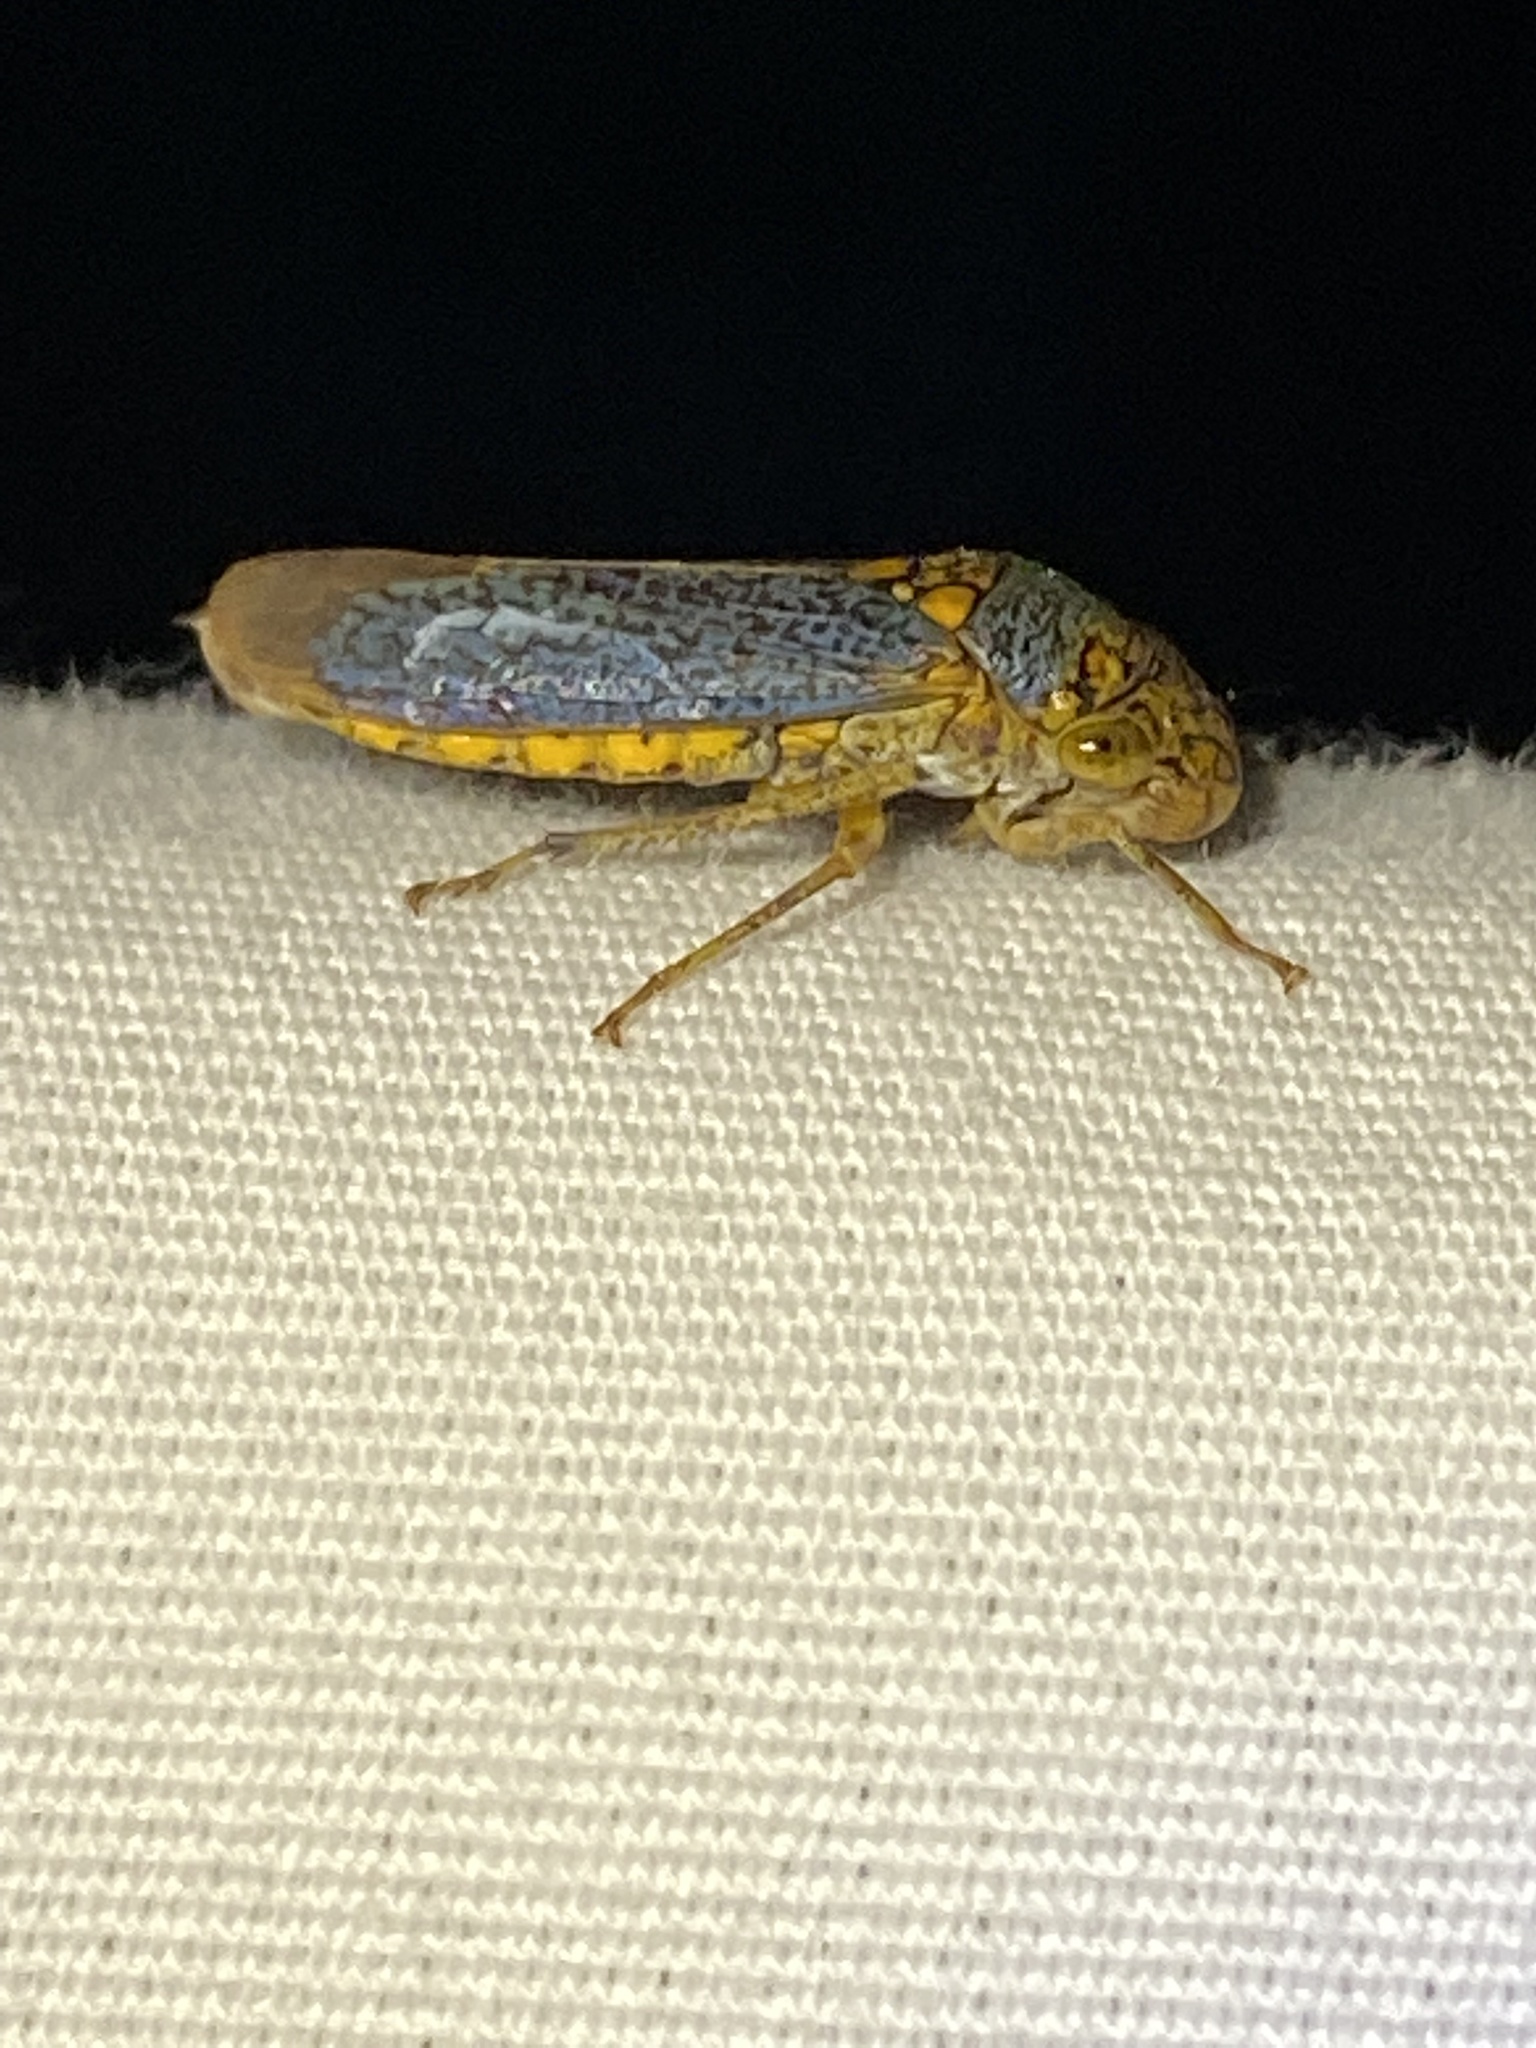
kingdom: Animalia
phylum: Arthropoda
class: Insecta
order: Hemiptera
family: Cicadellidae
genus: Oncometopia
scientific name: Oncometopia orbona
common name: Broad-headed sharpshooter
